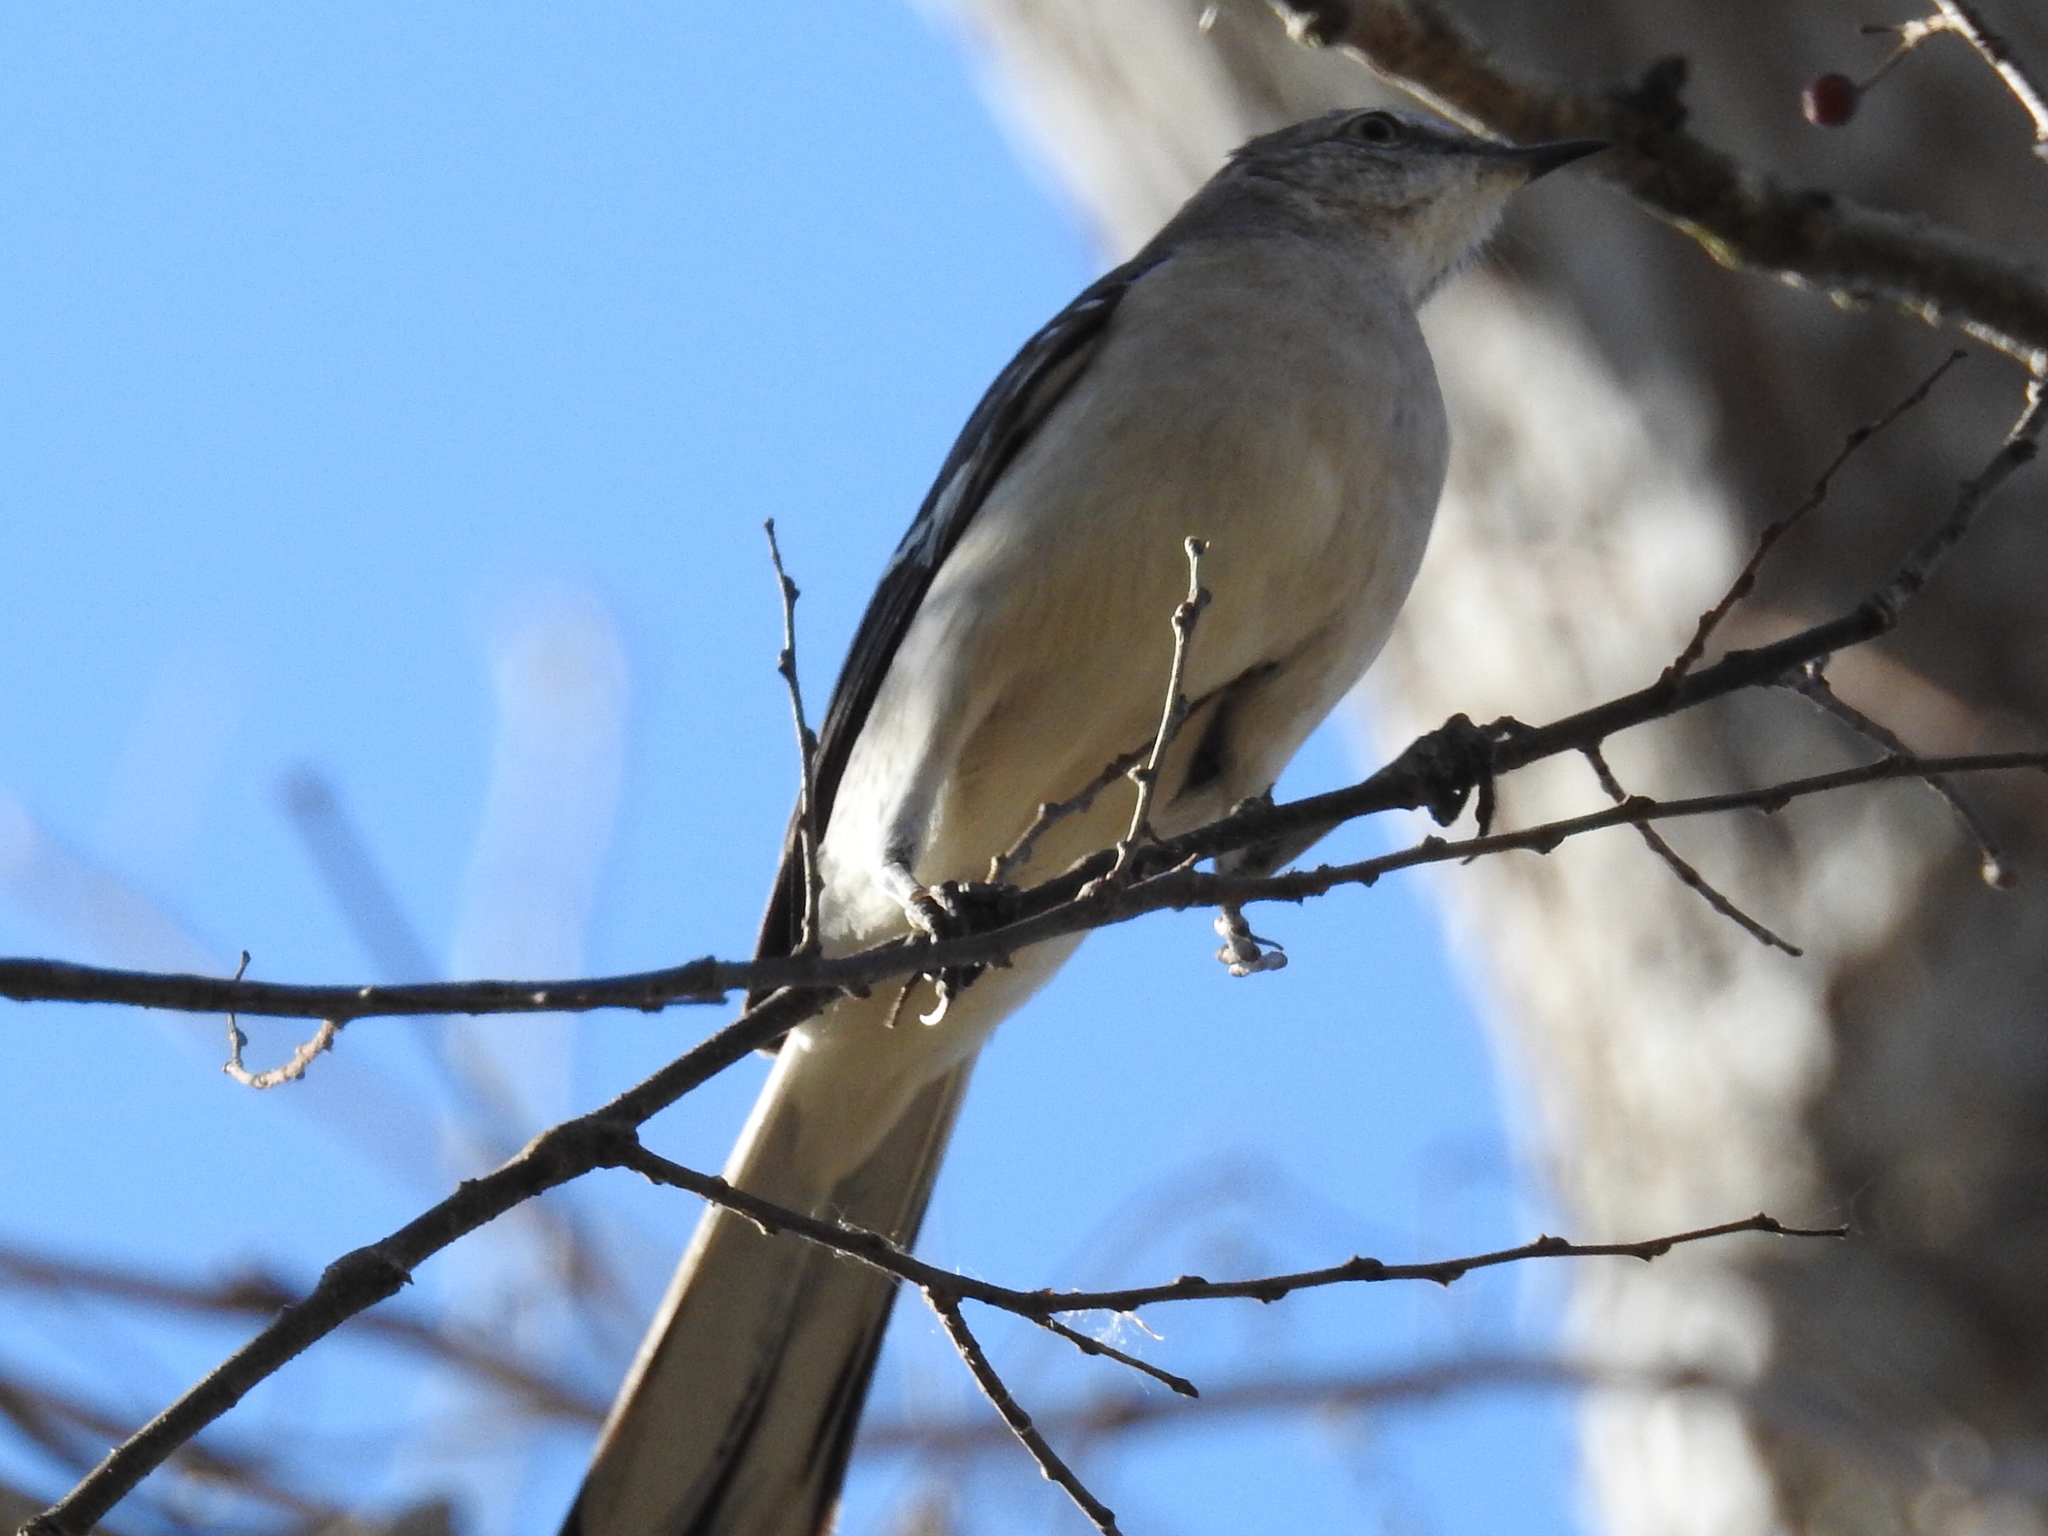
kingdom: Animalia
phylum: Chordata
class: Aves
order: Passeriformes
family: Mimidae
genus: Mimus
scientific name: Mimus polyglottos
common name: Northern mockingbird
